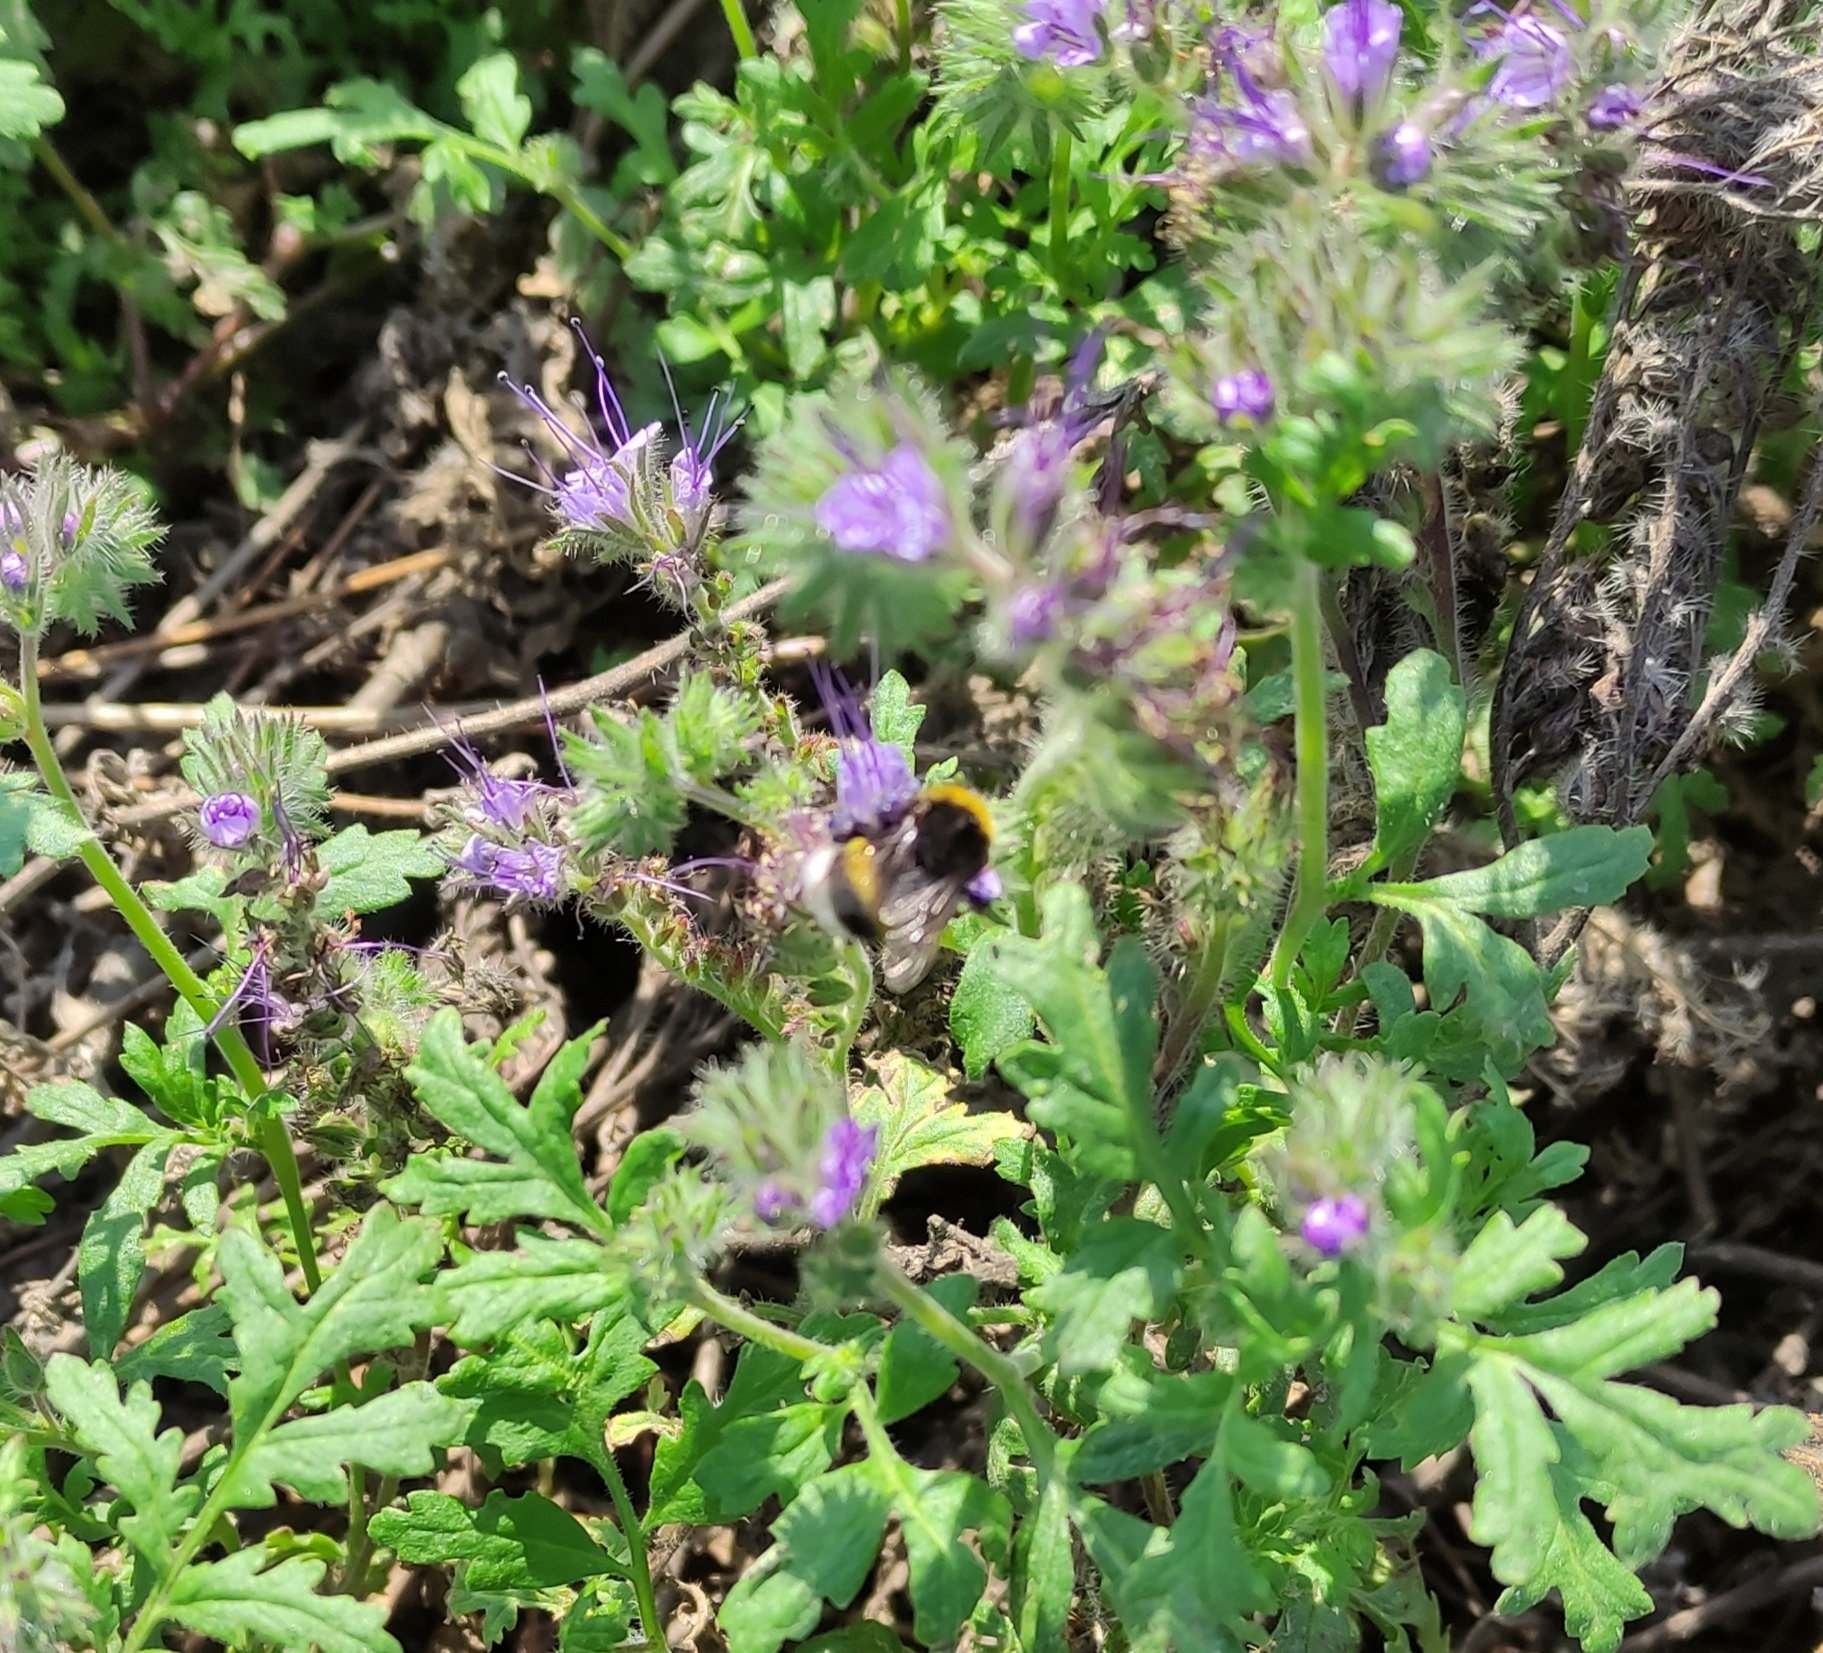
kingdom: Animalia
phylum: Arthropoda
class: Insecta
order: Hymenoptera
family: Apidae
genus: Bombus
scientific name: Bombus
